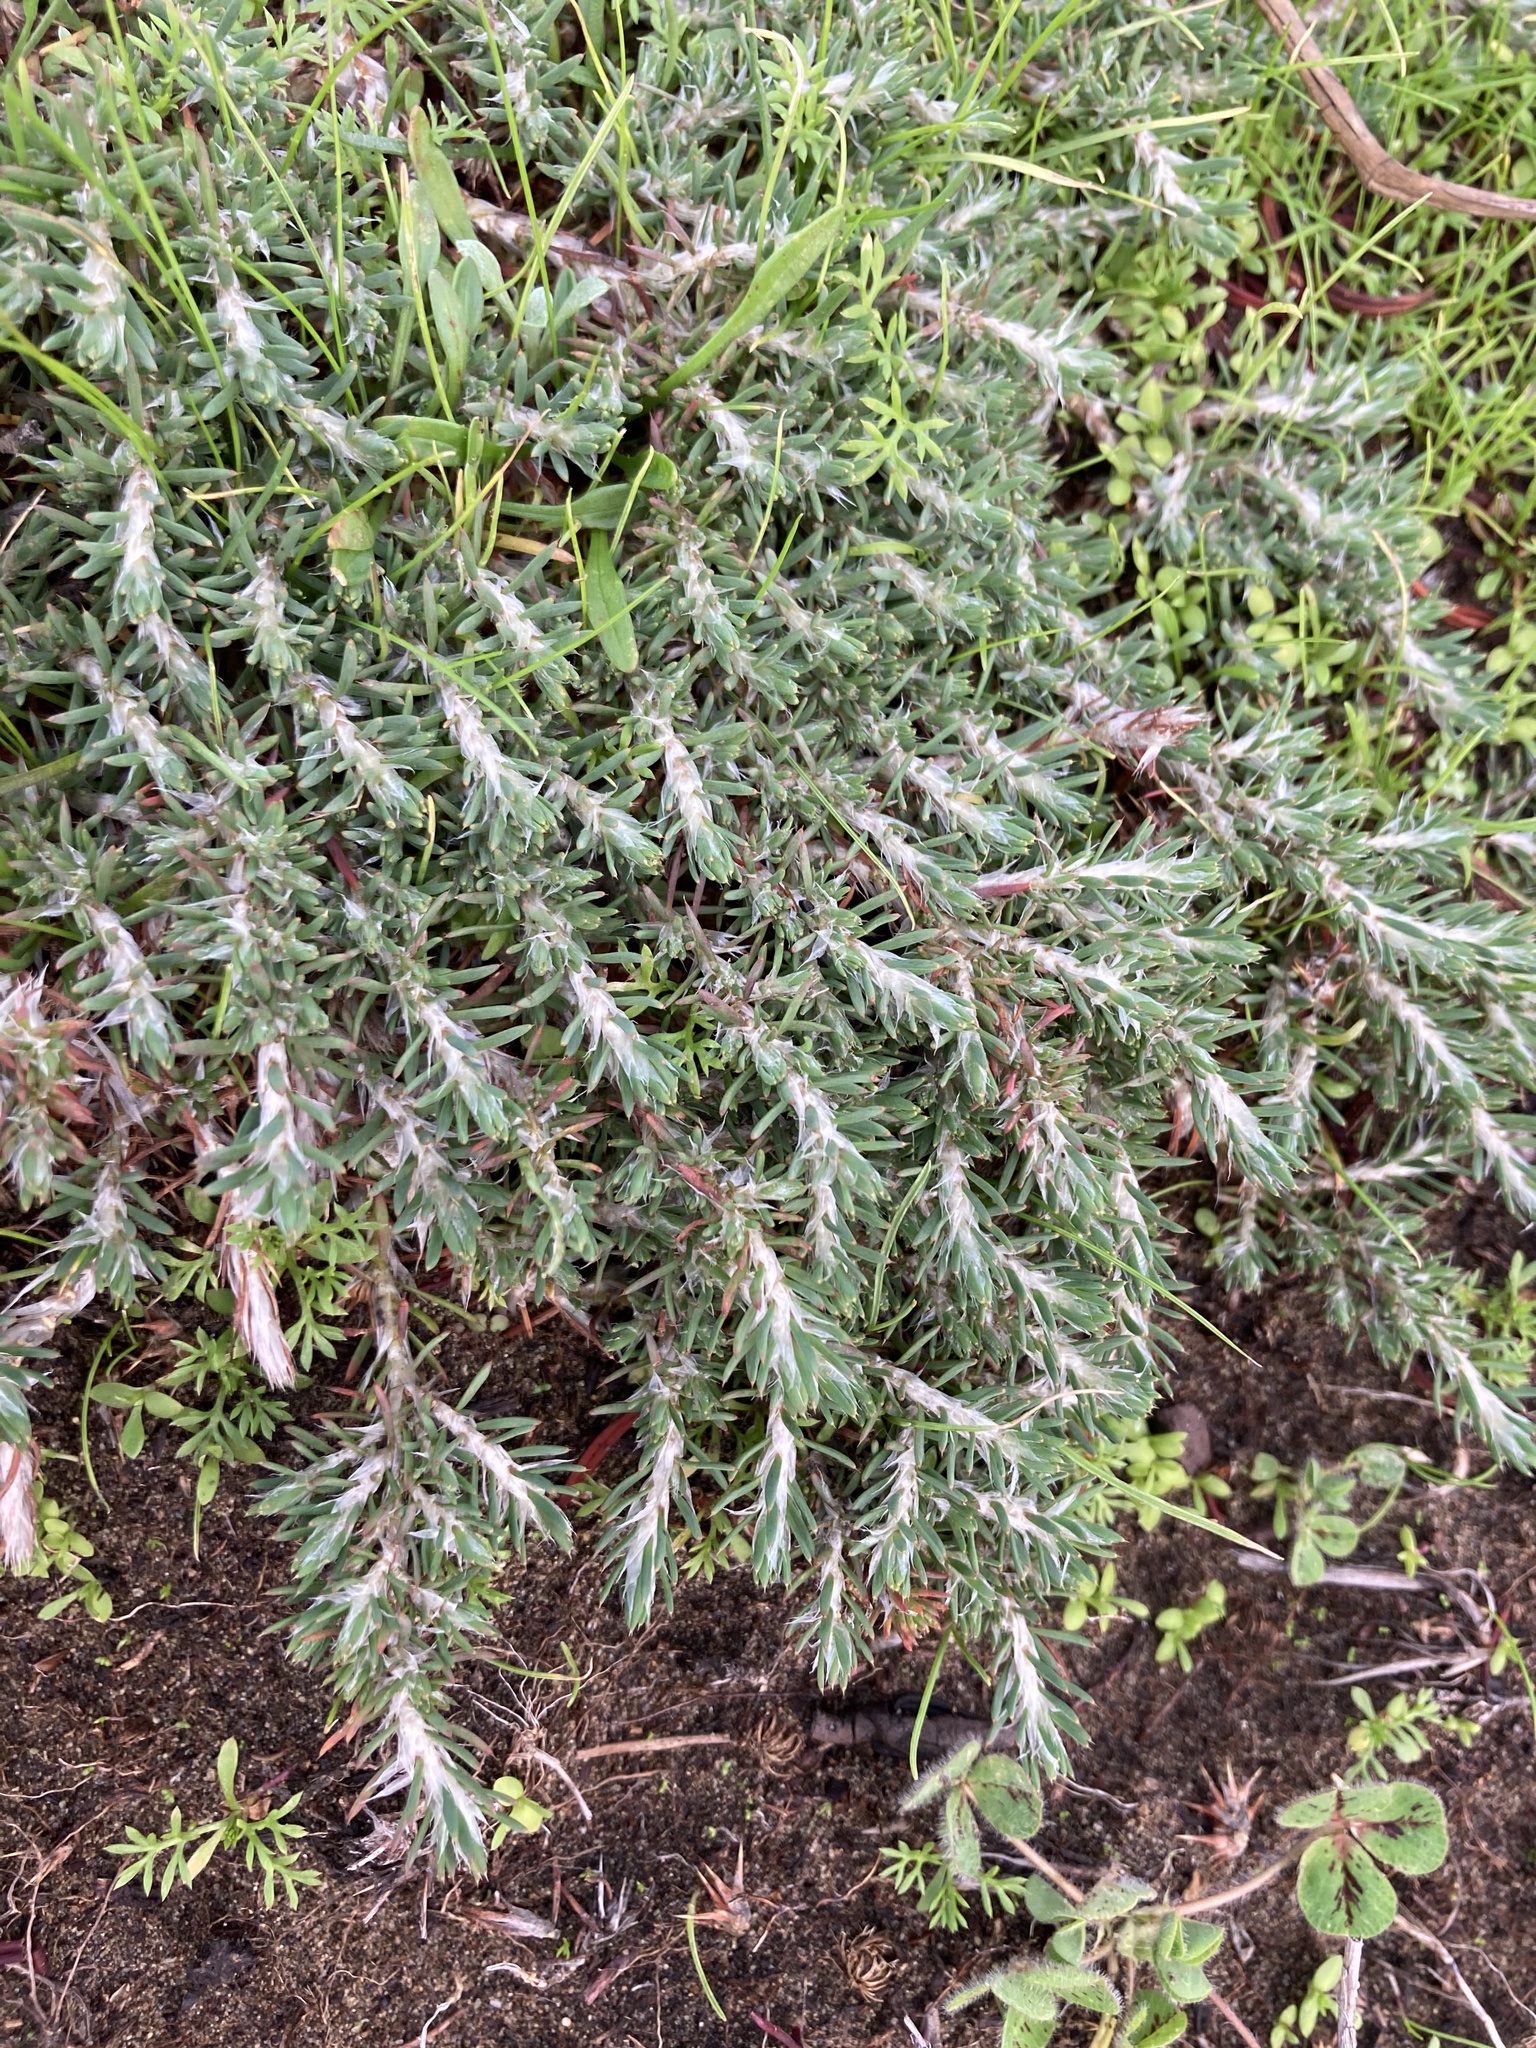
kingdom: Plantae
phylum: Tracheophyta
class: Magnoliopsida
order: Caryophyllales
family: Caryophyllaceae
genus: Cardionema
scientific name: Cardionema ramosissima
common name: Sandcarpet
